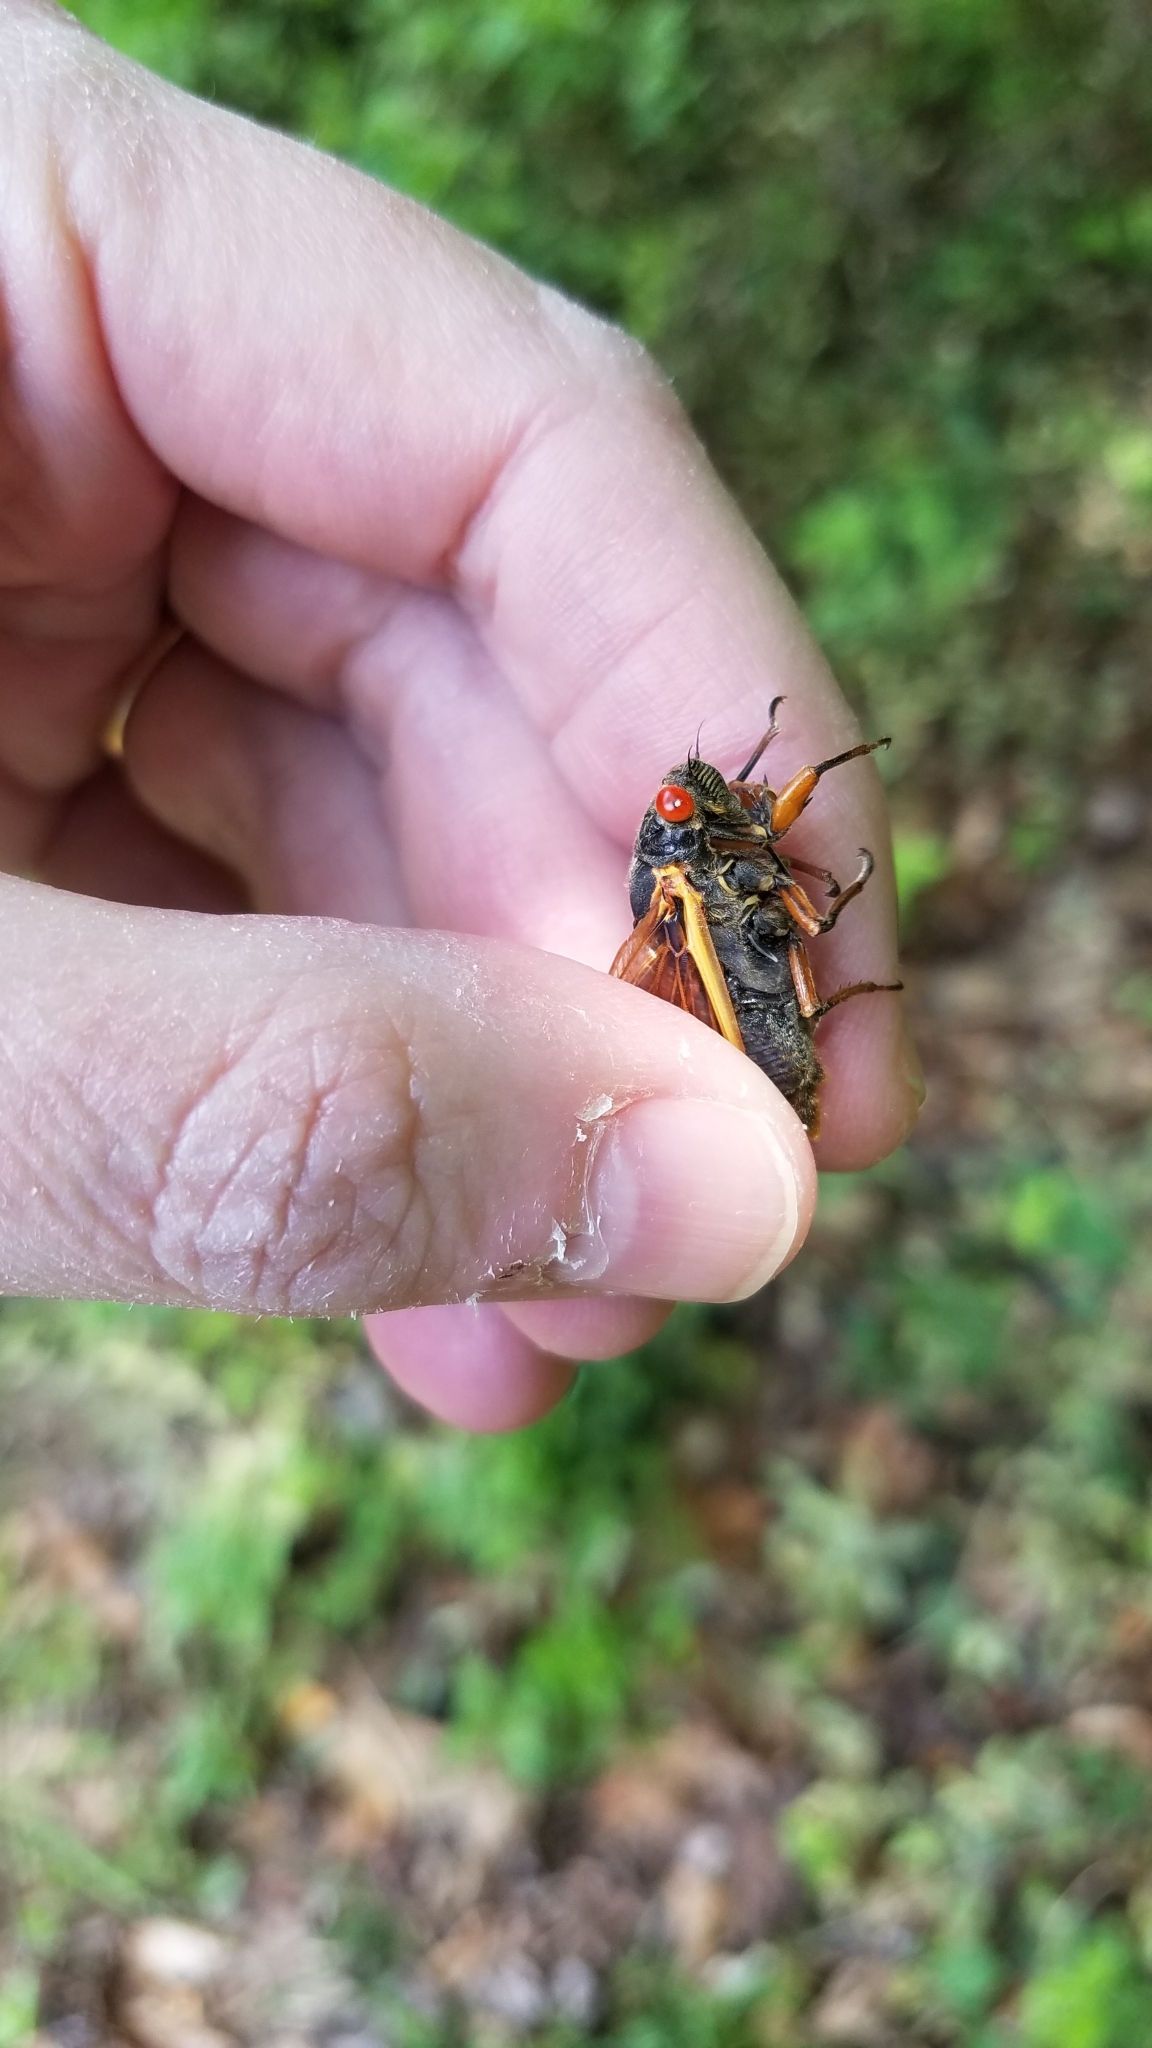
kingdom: Animalia
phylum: Arthropoda
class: Insecta
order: Hemiptera
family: Cicadidae
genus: Magicicada
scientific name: Magicicada cassini
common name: Cassin's 17-year cicada
